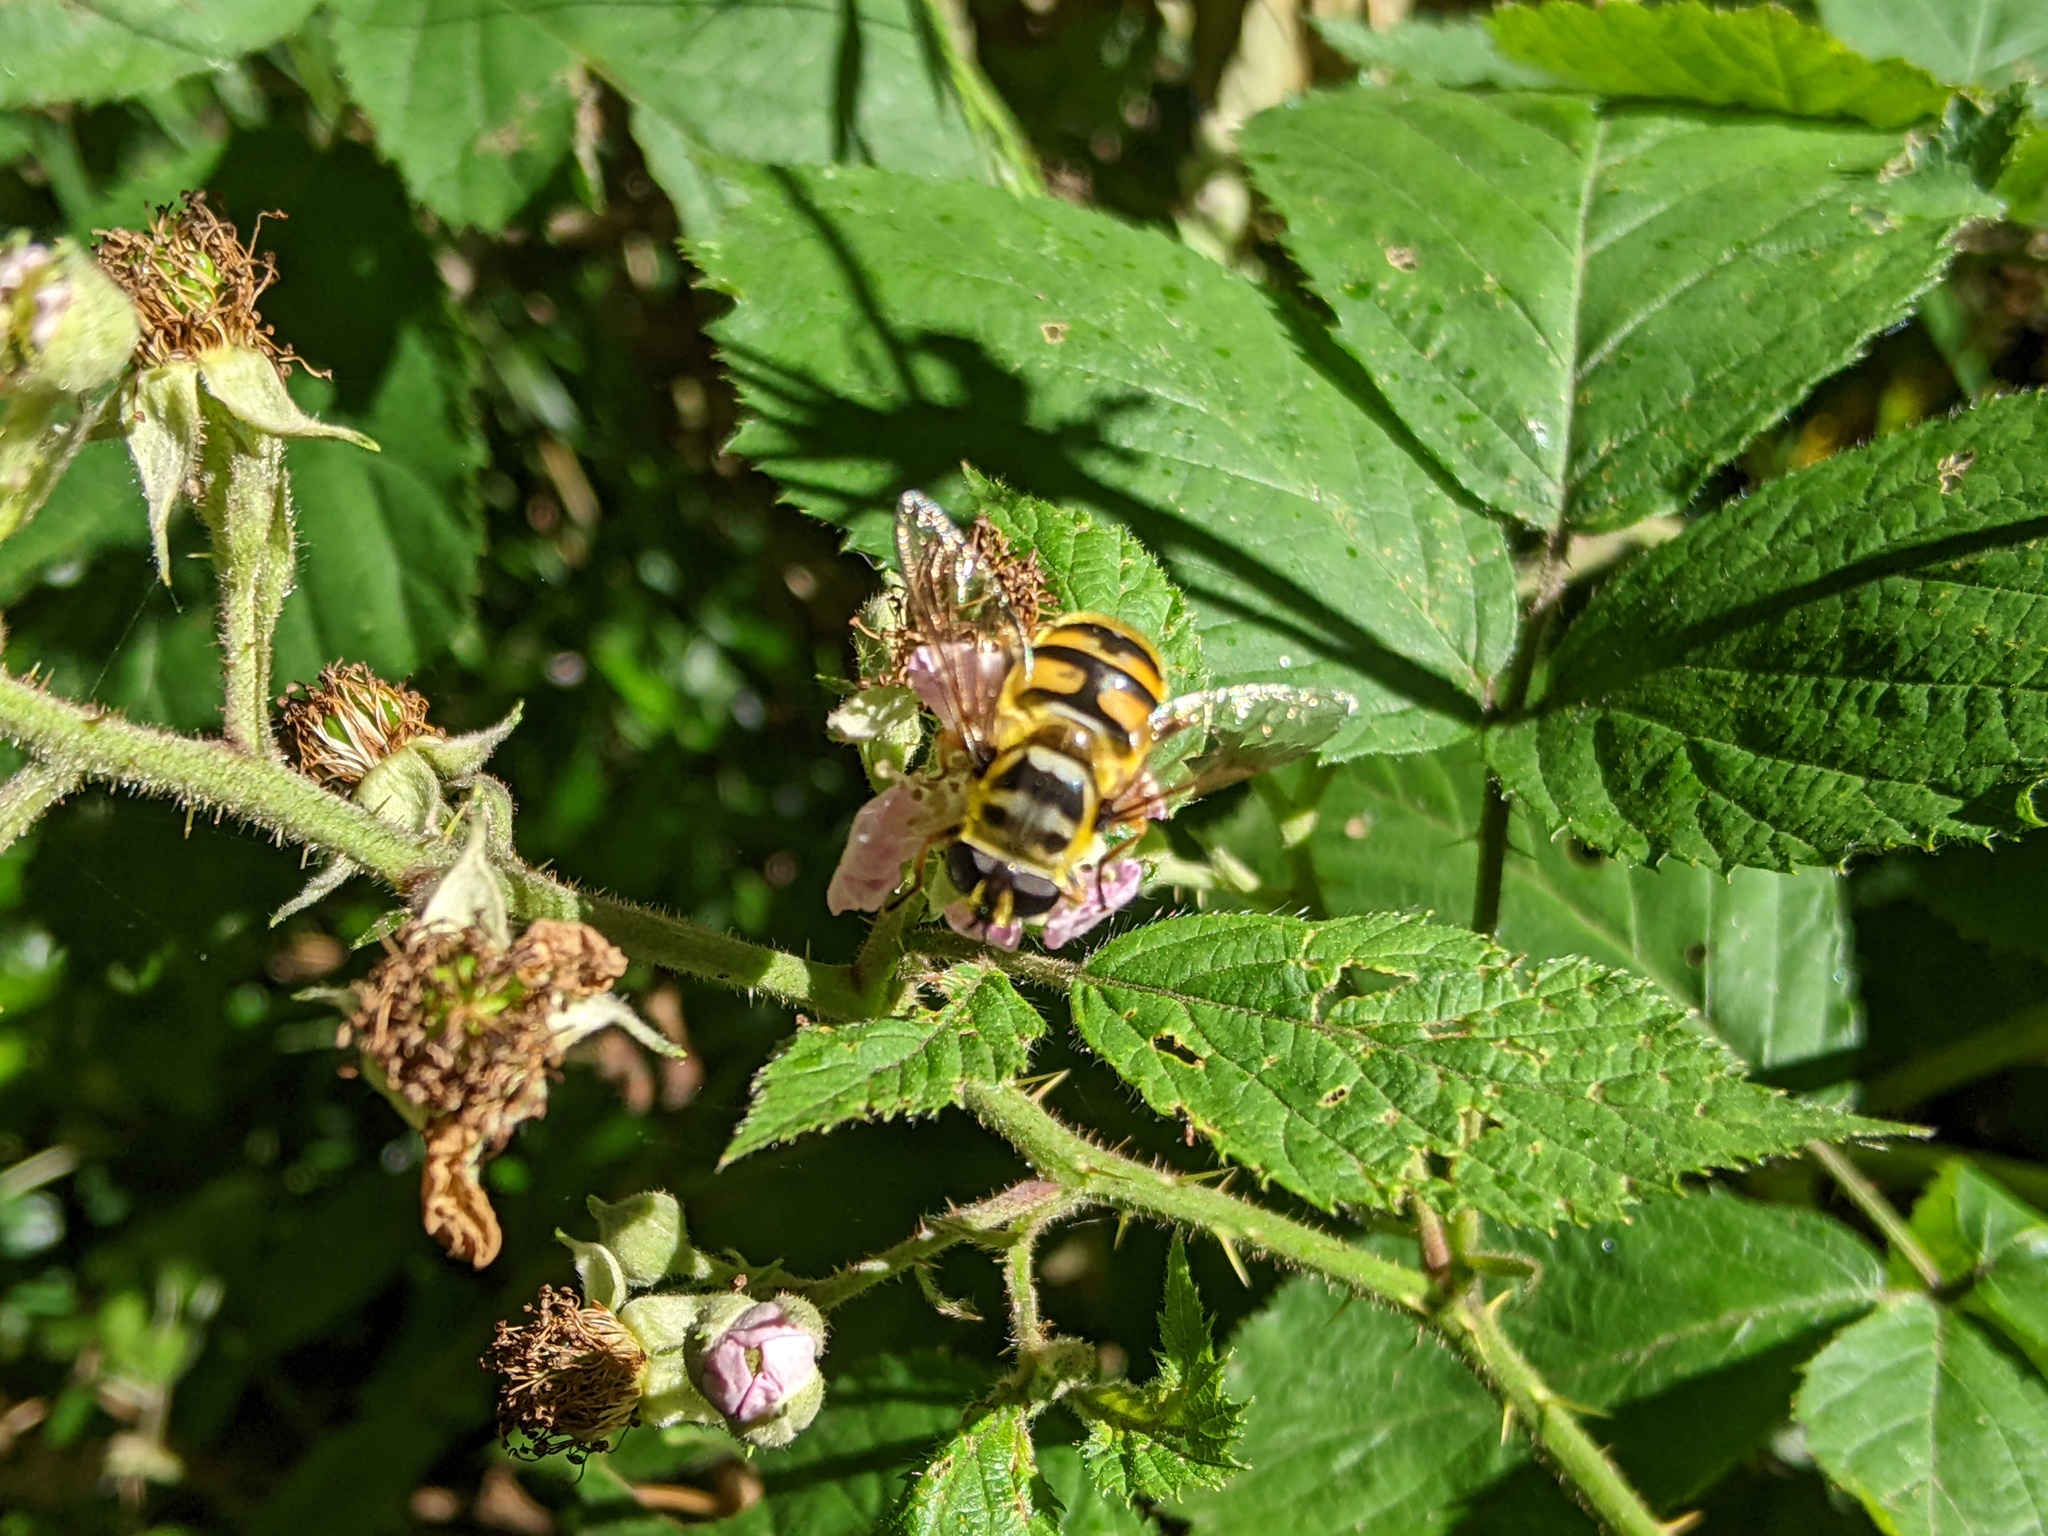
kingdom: Animalia
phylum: Arthropoda
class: Insecta
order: Diptera
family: Syrphidae
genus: Myathropa
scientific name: Myathropa florea
